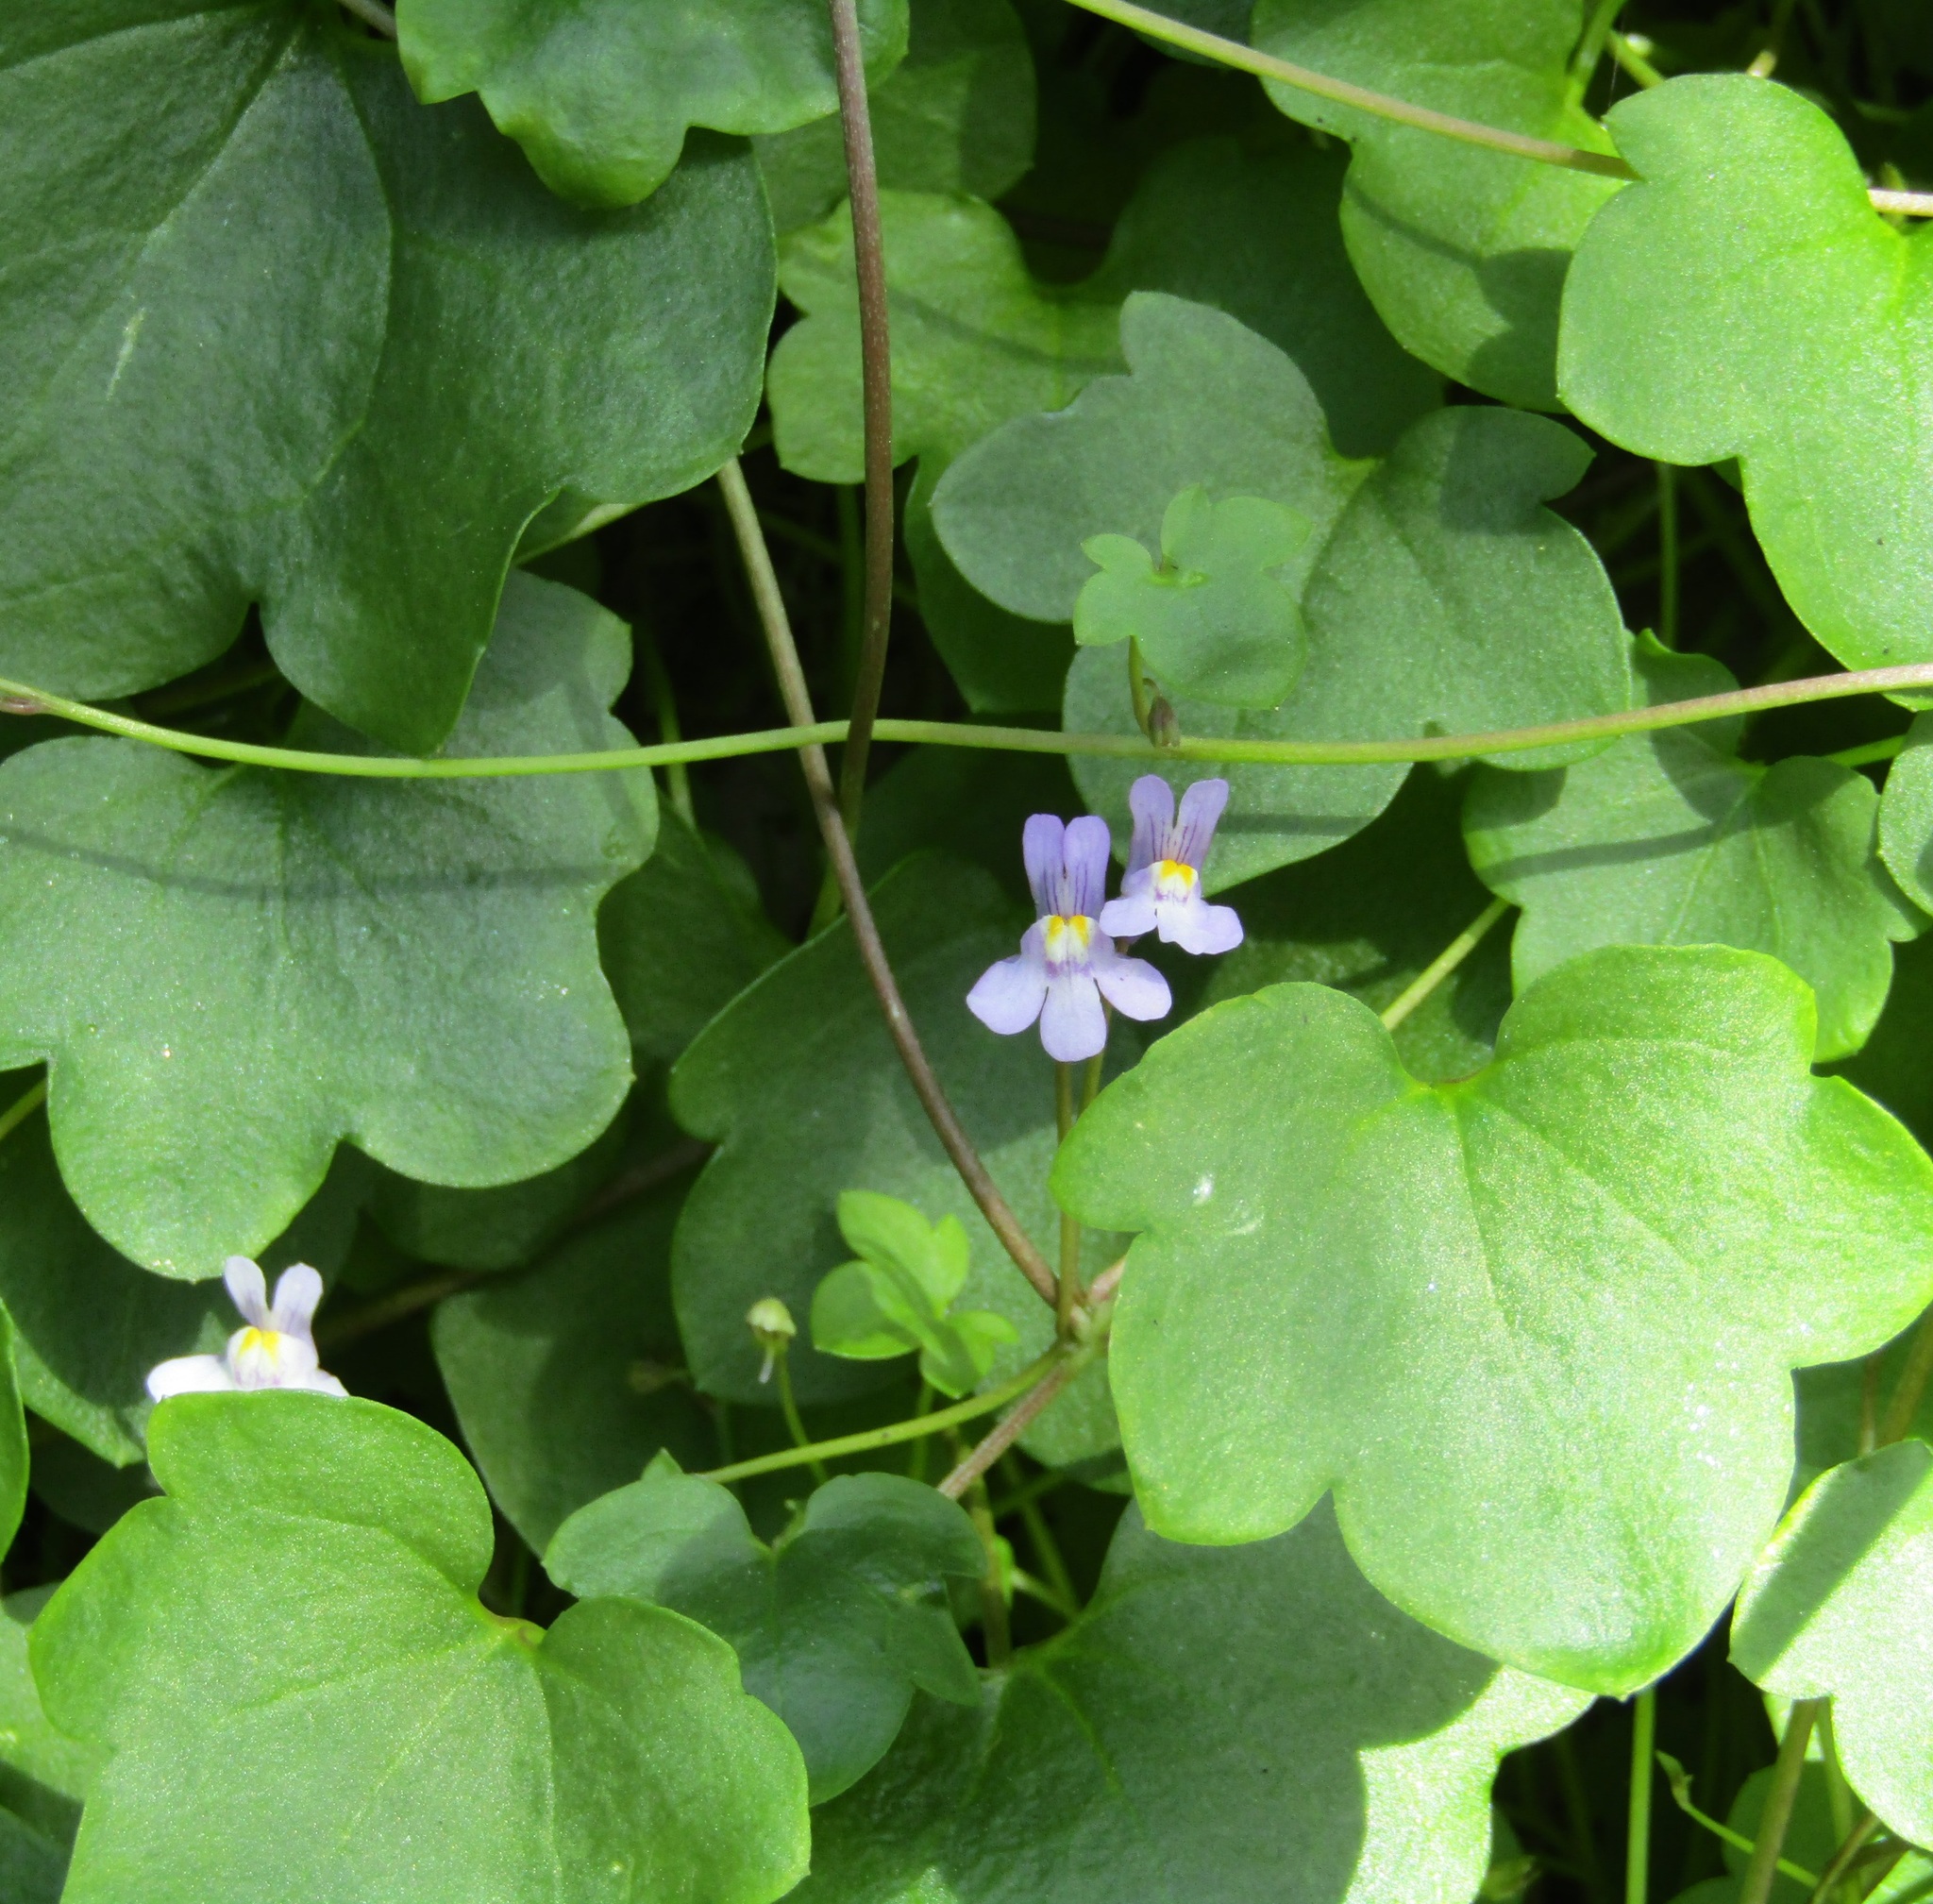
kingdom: Plantae
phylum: Tracheophyta
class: Magnoliopsida
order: Lamiales
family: Plantaginaceae
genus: Cymbalaria
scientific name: Cymbalaria muralis
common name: Ivy-leaved toadflax
